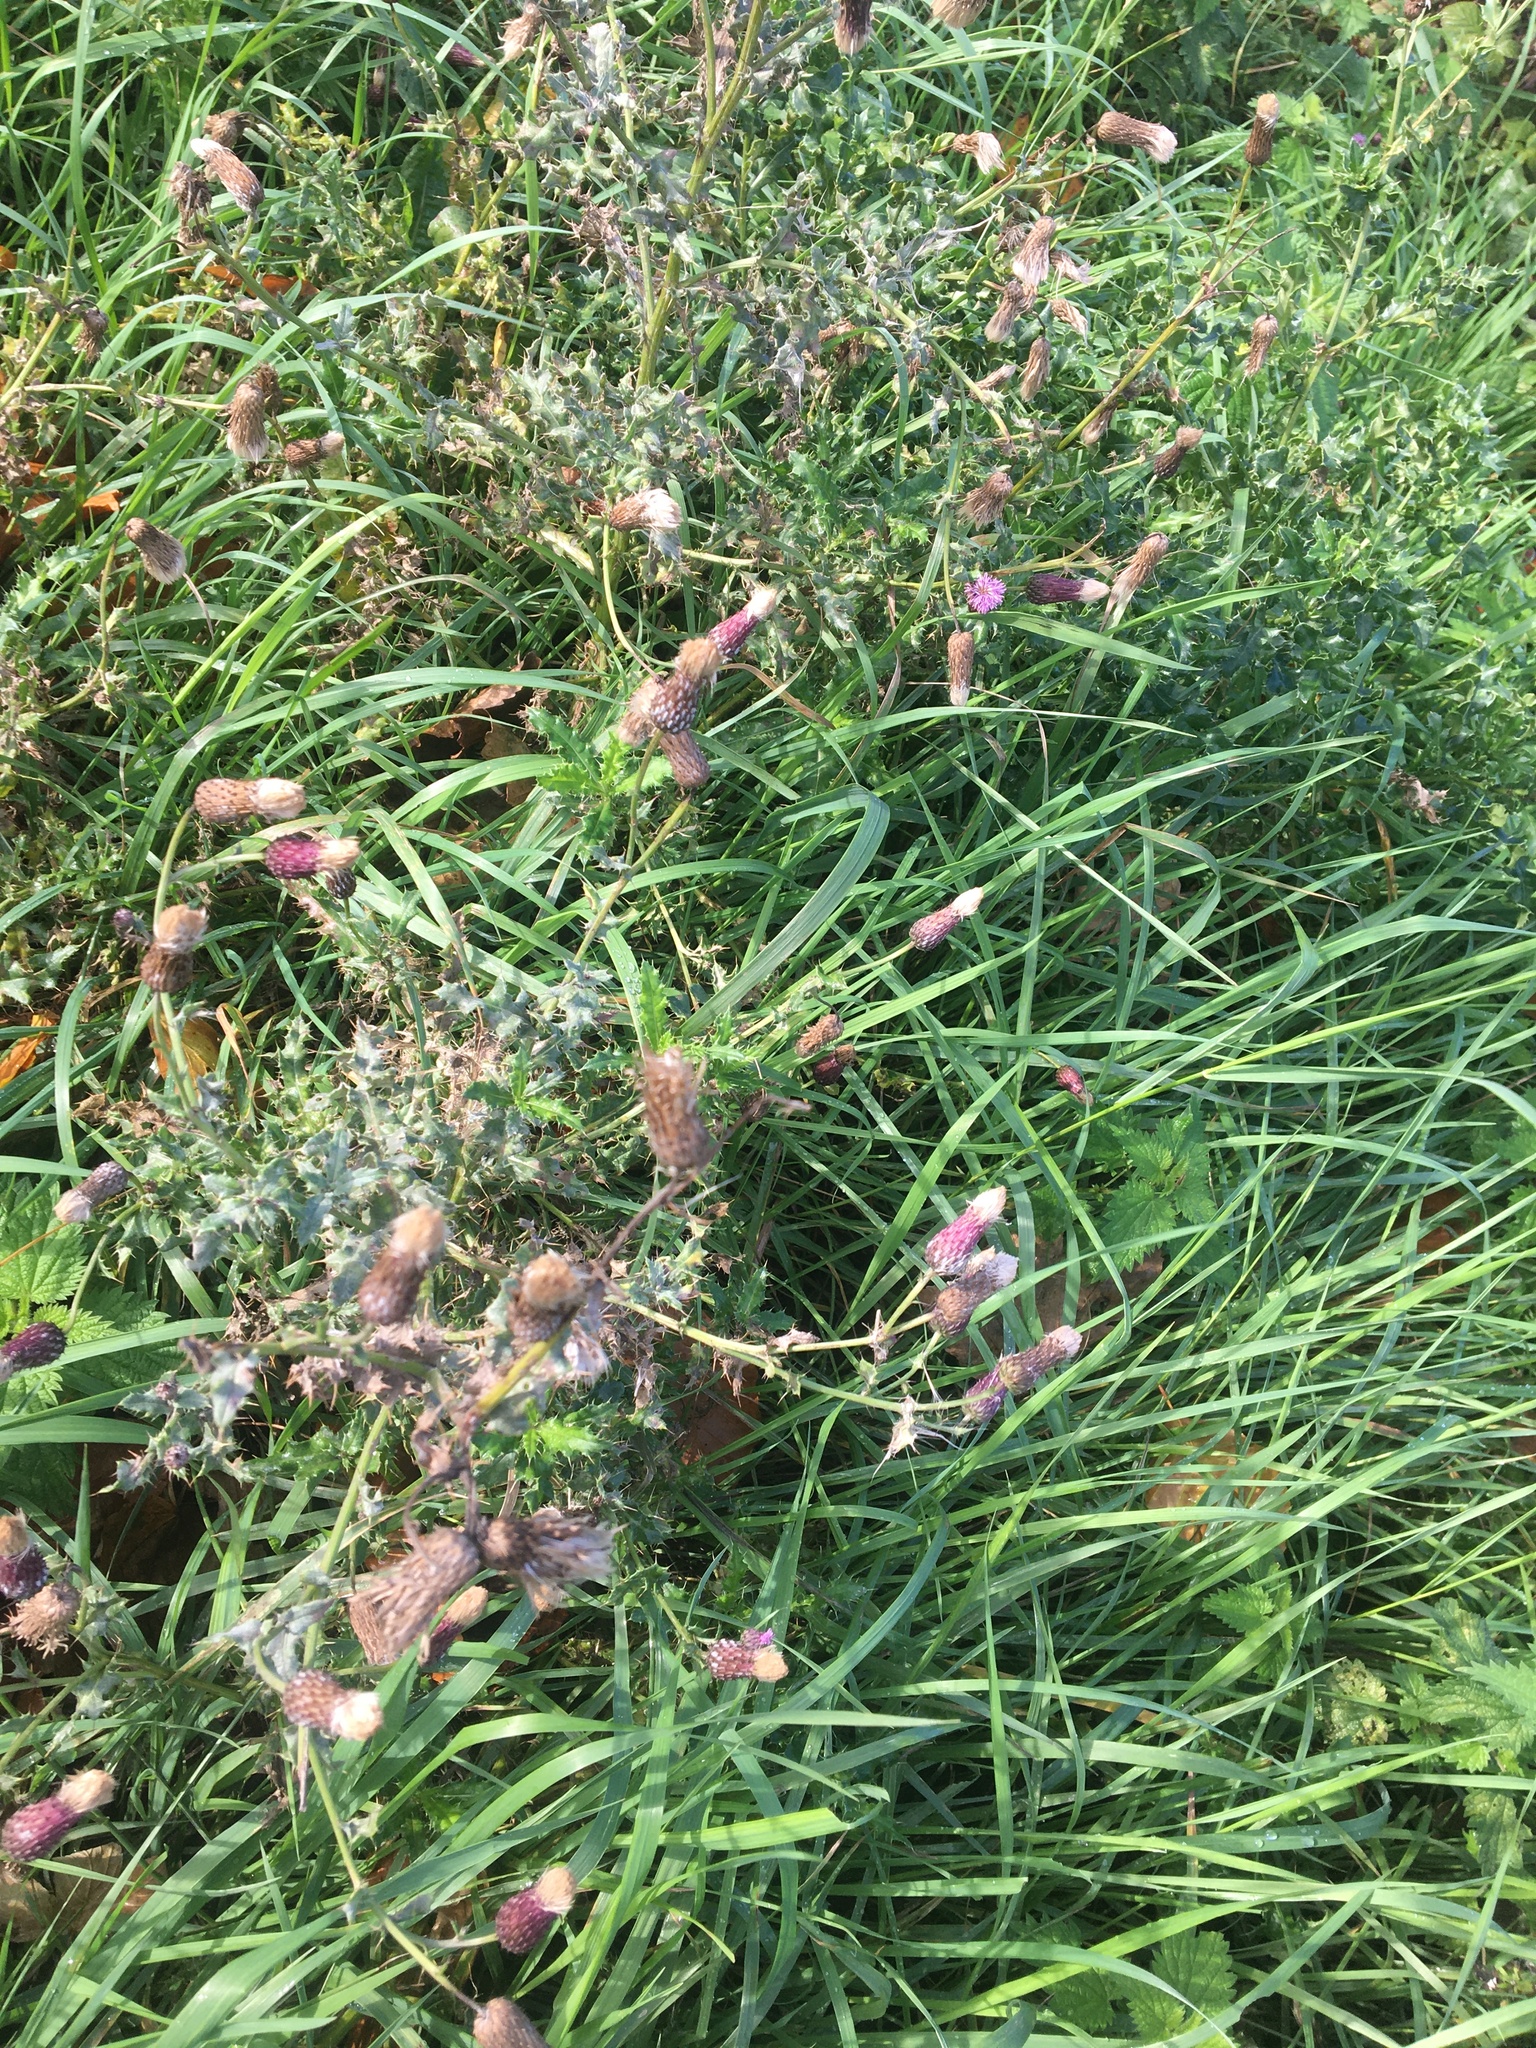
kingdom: Plantae
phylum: Tracheophyta
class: Magnoliopsida
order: Asterales
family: Asteraceae
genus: Cirsium
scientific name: Cirsium arvense
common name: Creeping thistle
